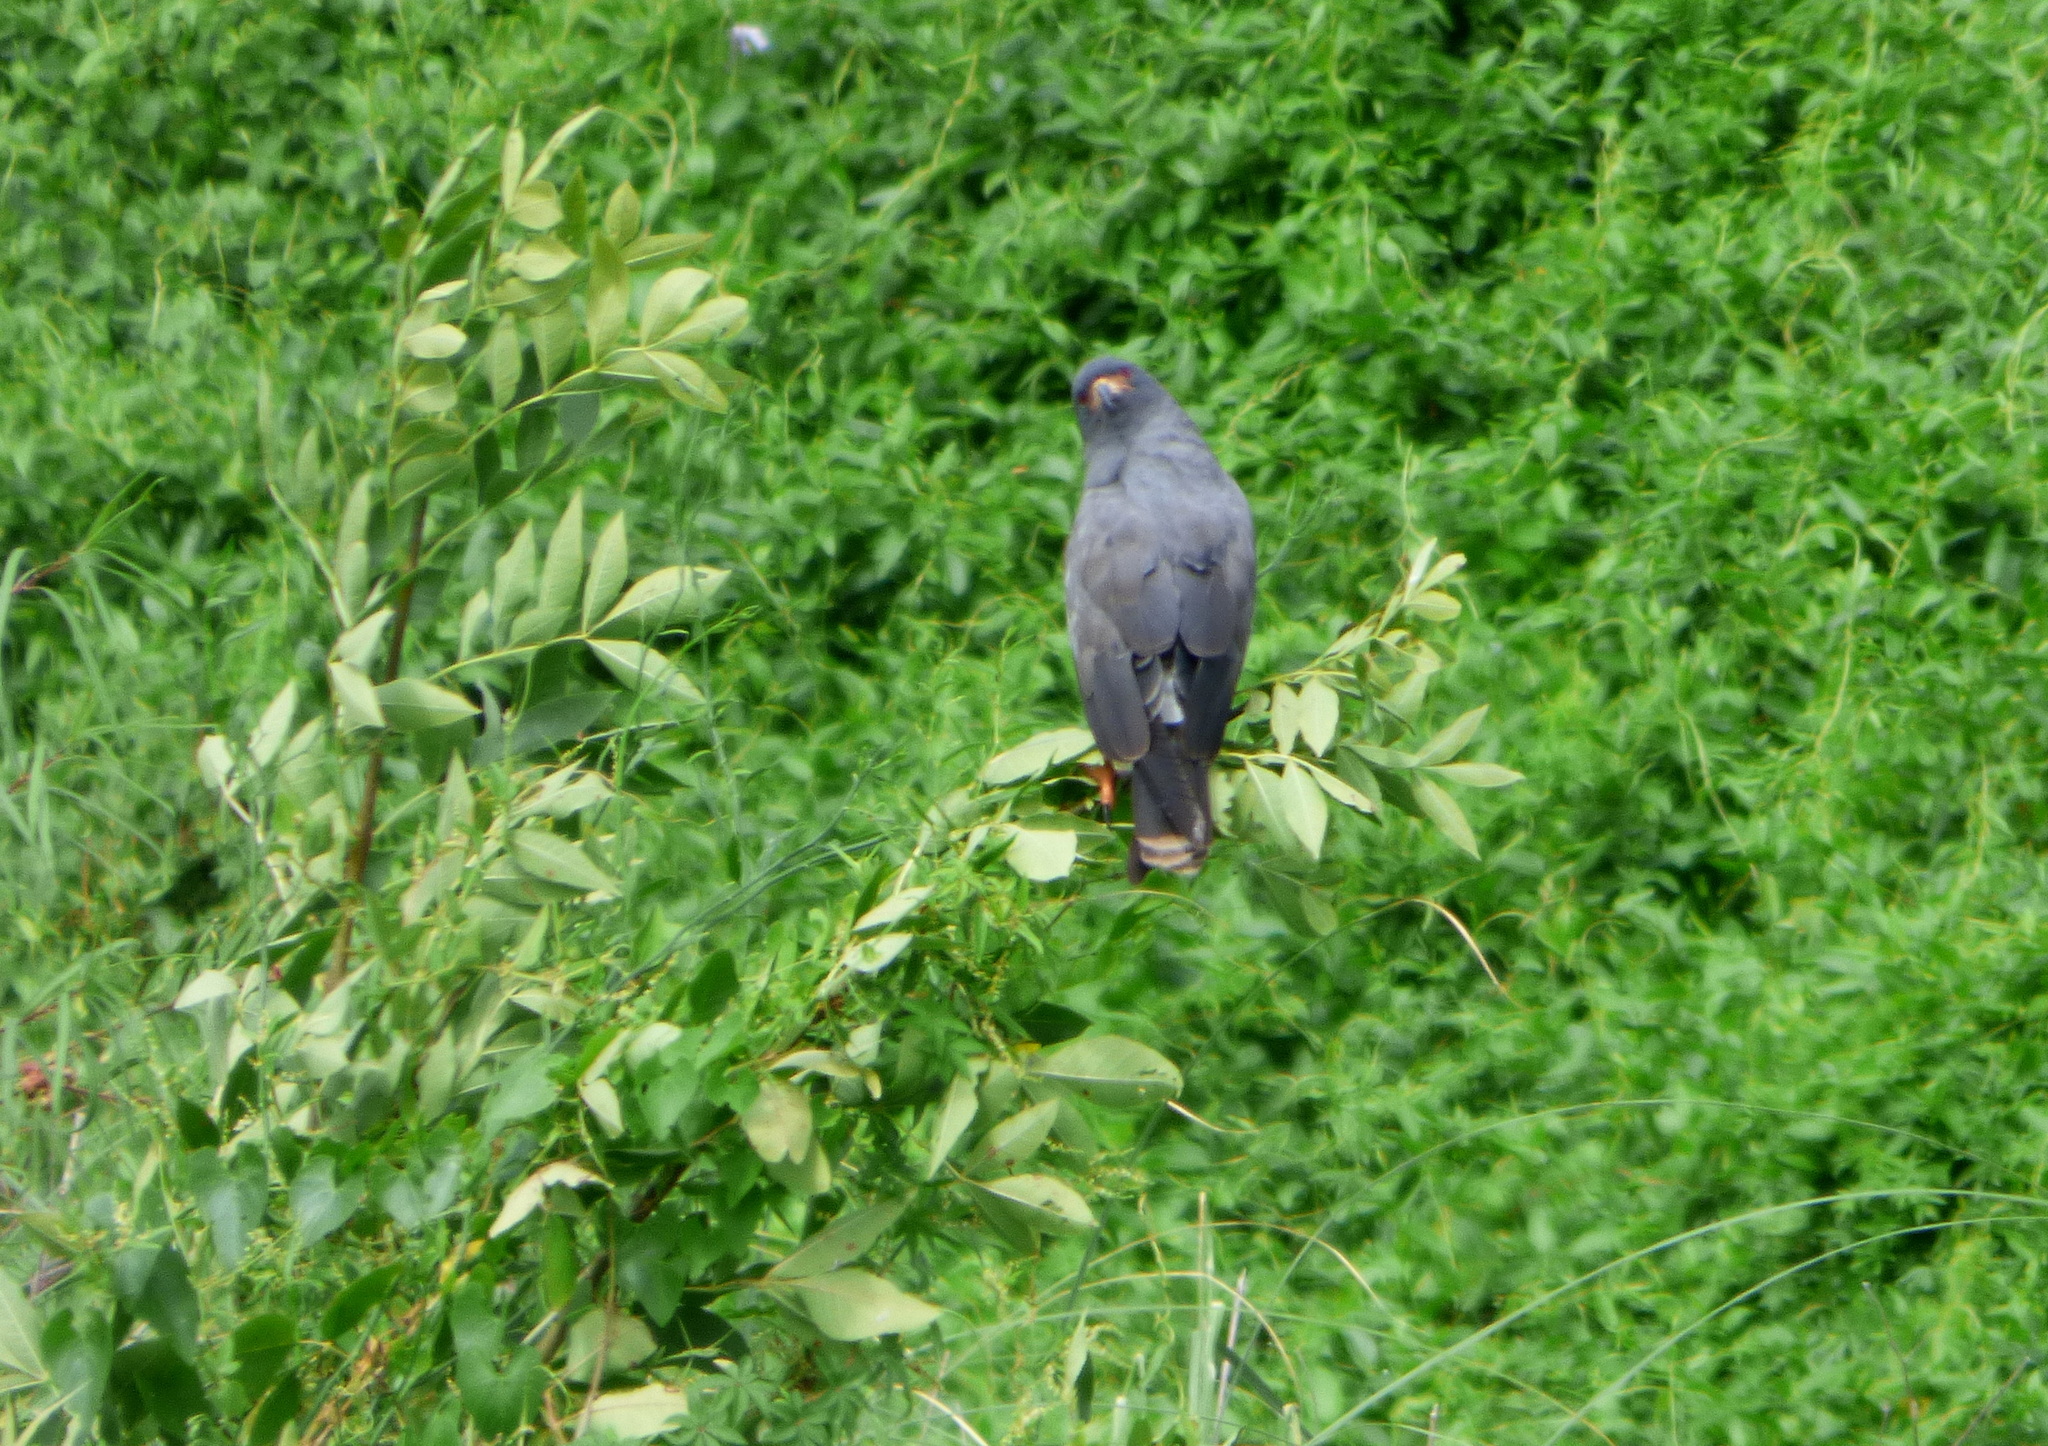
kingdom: Animalia
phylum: Chordata
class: Aves
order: Accipitriformes
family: Accipitridae
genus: Rostrhamus
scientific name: Rostrhamus sociabilis
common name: Snail kite
